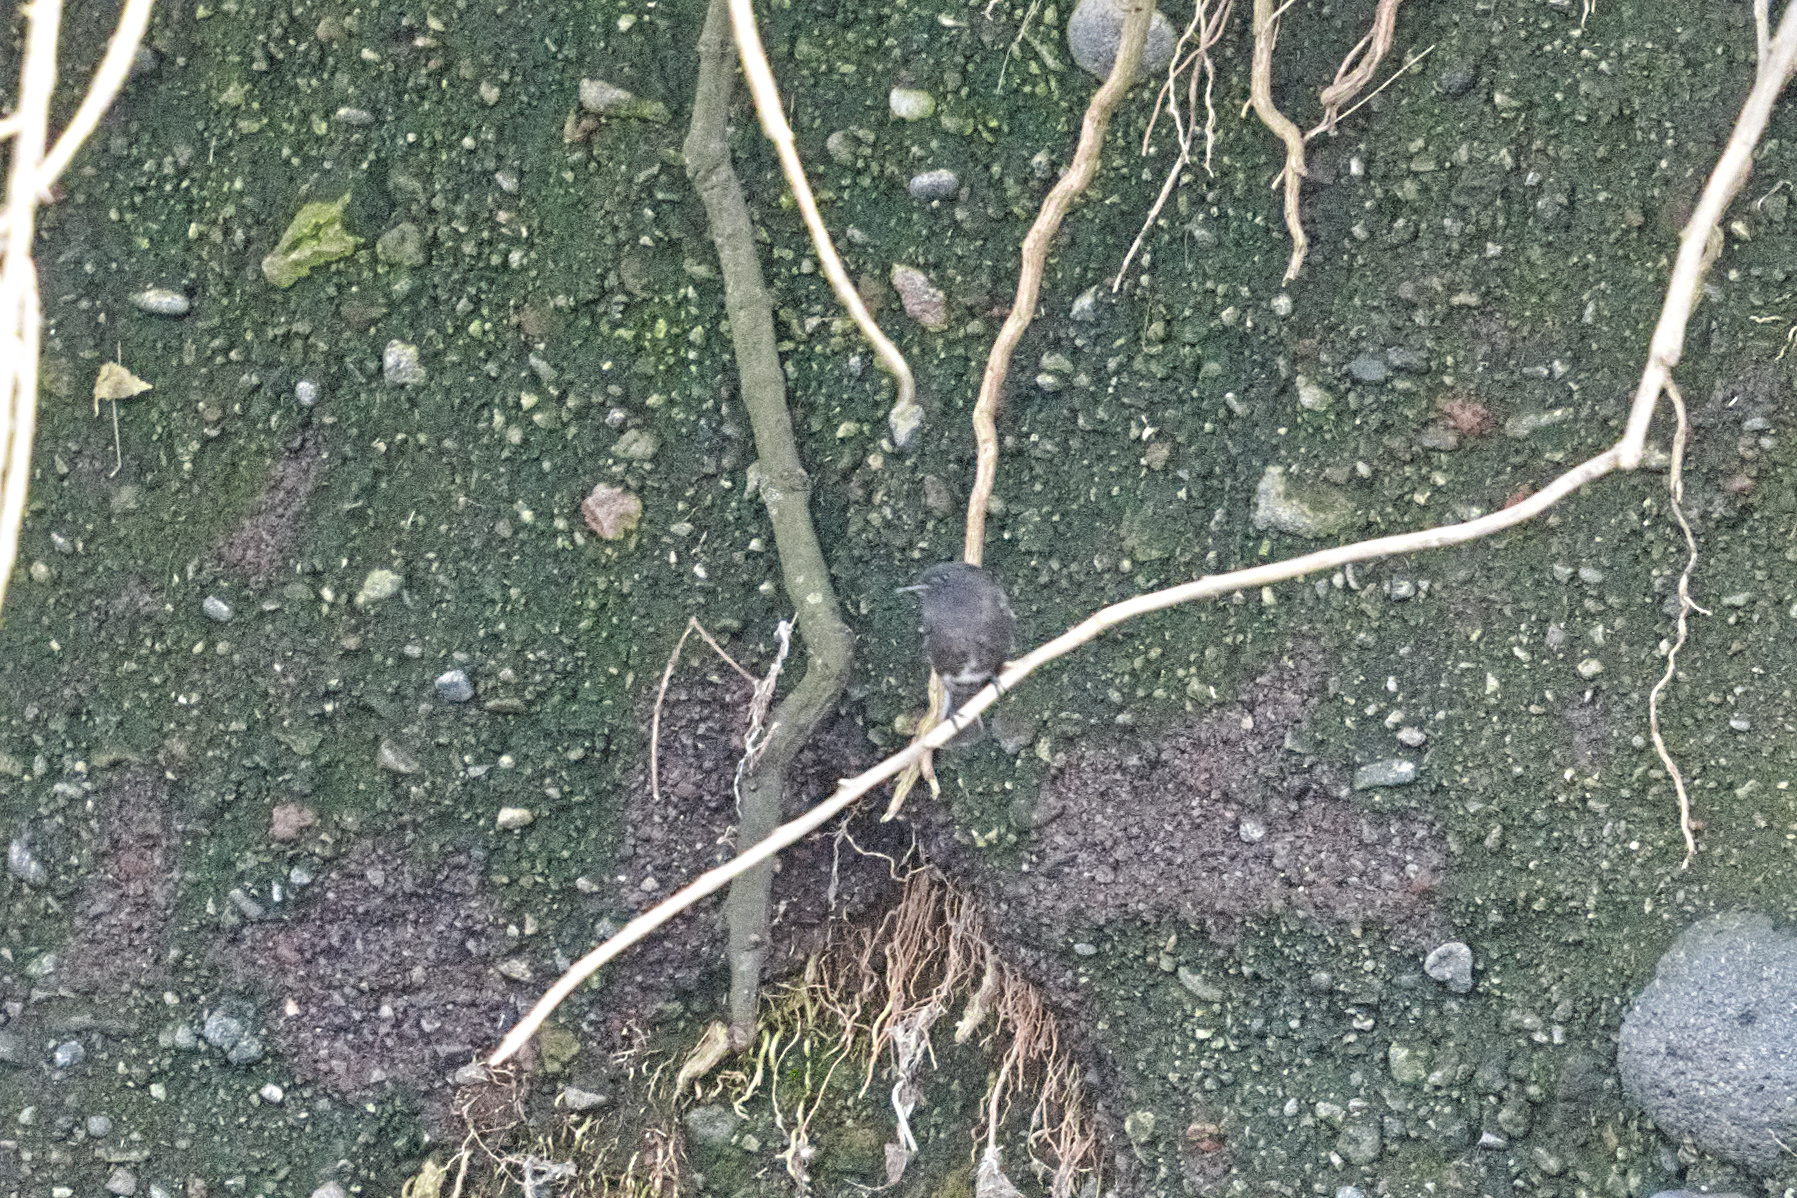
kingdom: Animalia
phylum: Chordata
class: Aves
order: Passeriformes
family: Tyrannidae
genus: Sayornis
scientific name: Sayornis nigricans
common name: Black phoebe
